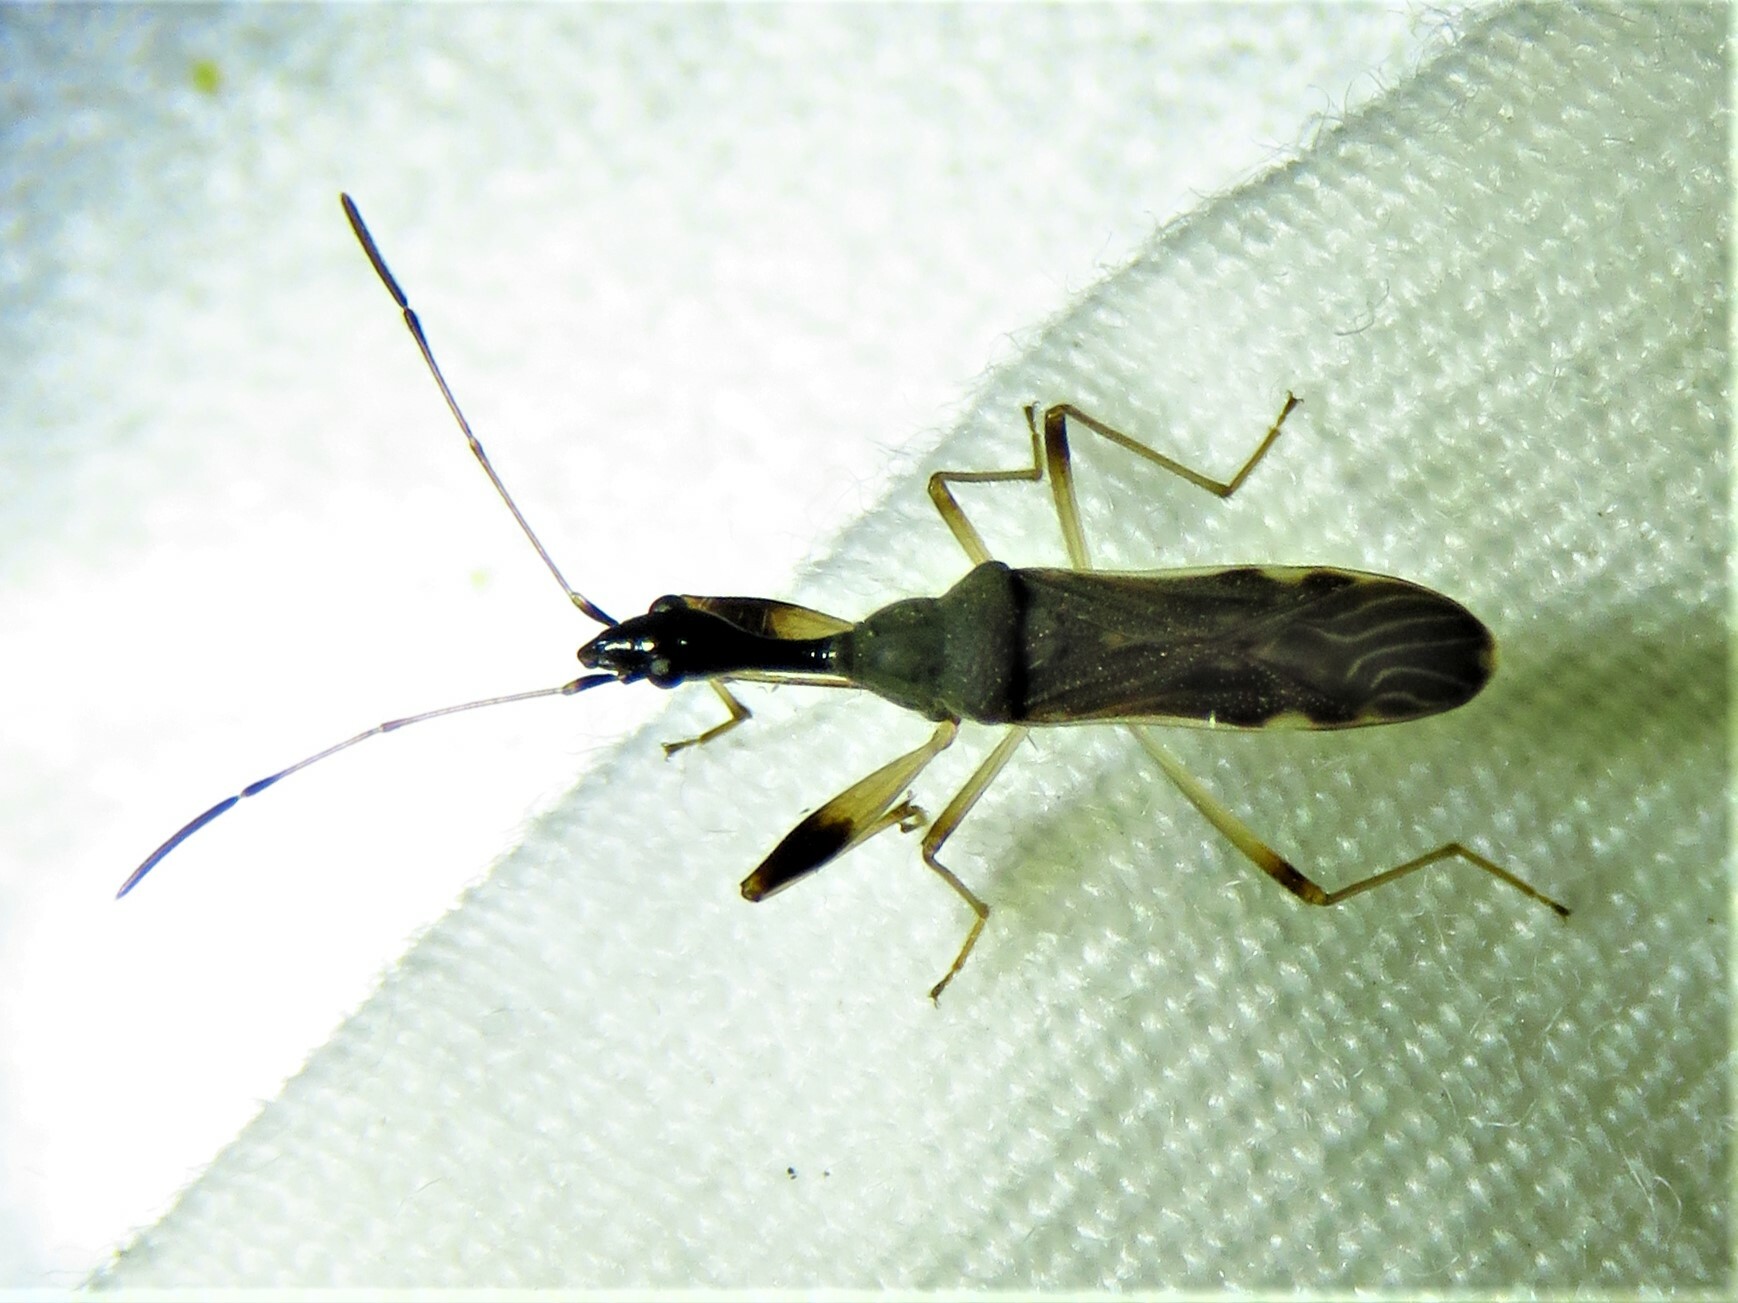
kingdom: Animalia
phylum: Arthropoda
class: Insecta
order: Hemiptera
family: Rhyparochromidae
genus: Myodocha
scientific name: Myodocha serripes
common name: Long-necked seed bug
